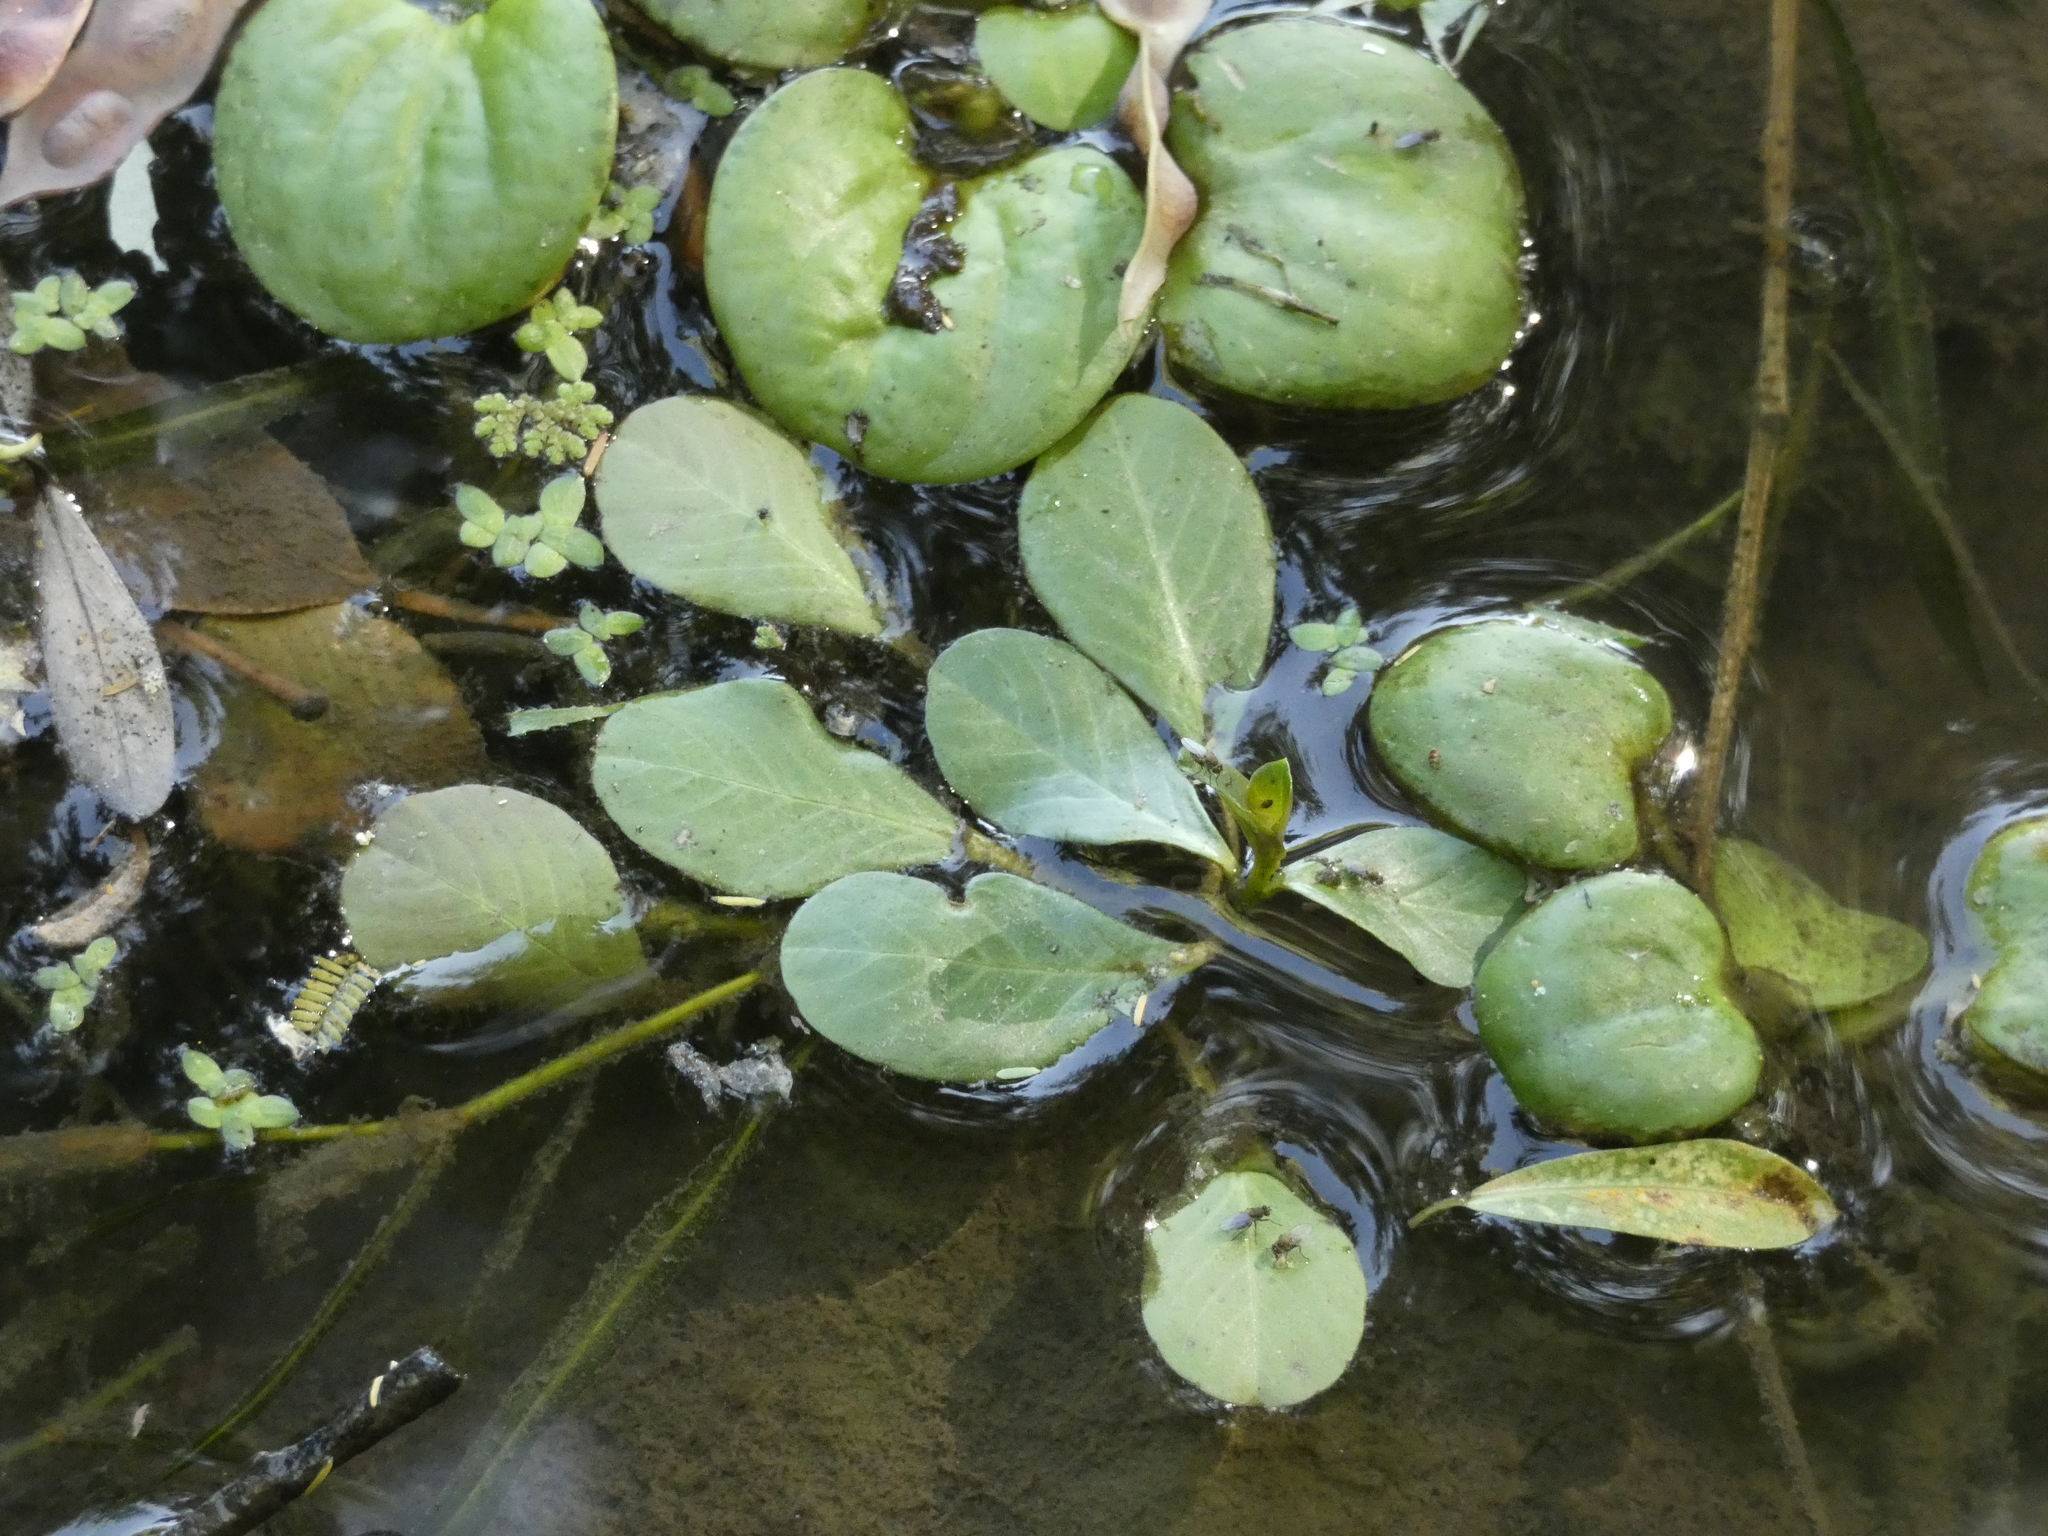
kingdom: Plantae
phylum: Tracheophyta
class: Magnoliopsida
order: Myrtales
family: Onagraceae
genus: Ludwigia
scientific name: Ludwigia peploides
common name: Floating primrose-willow
